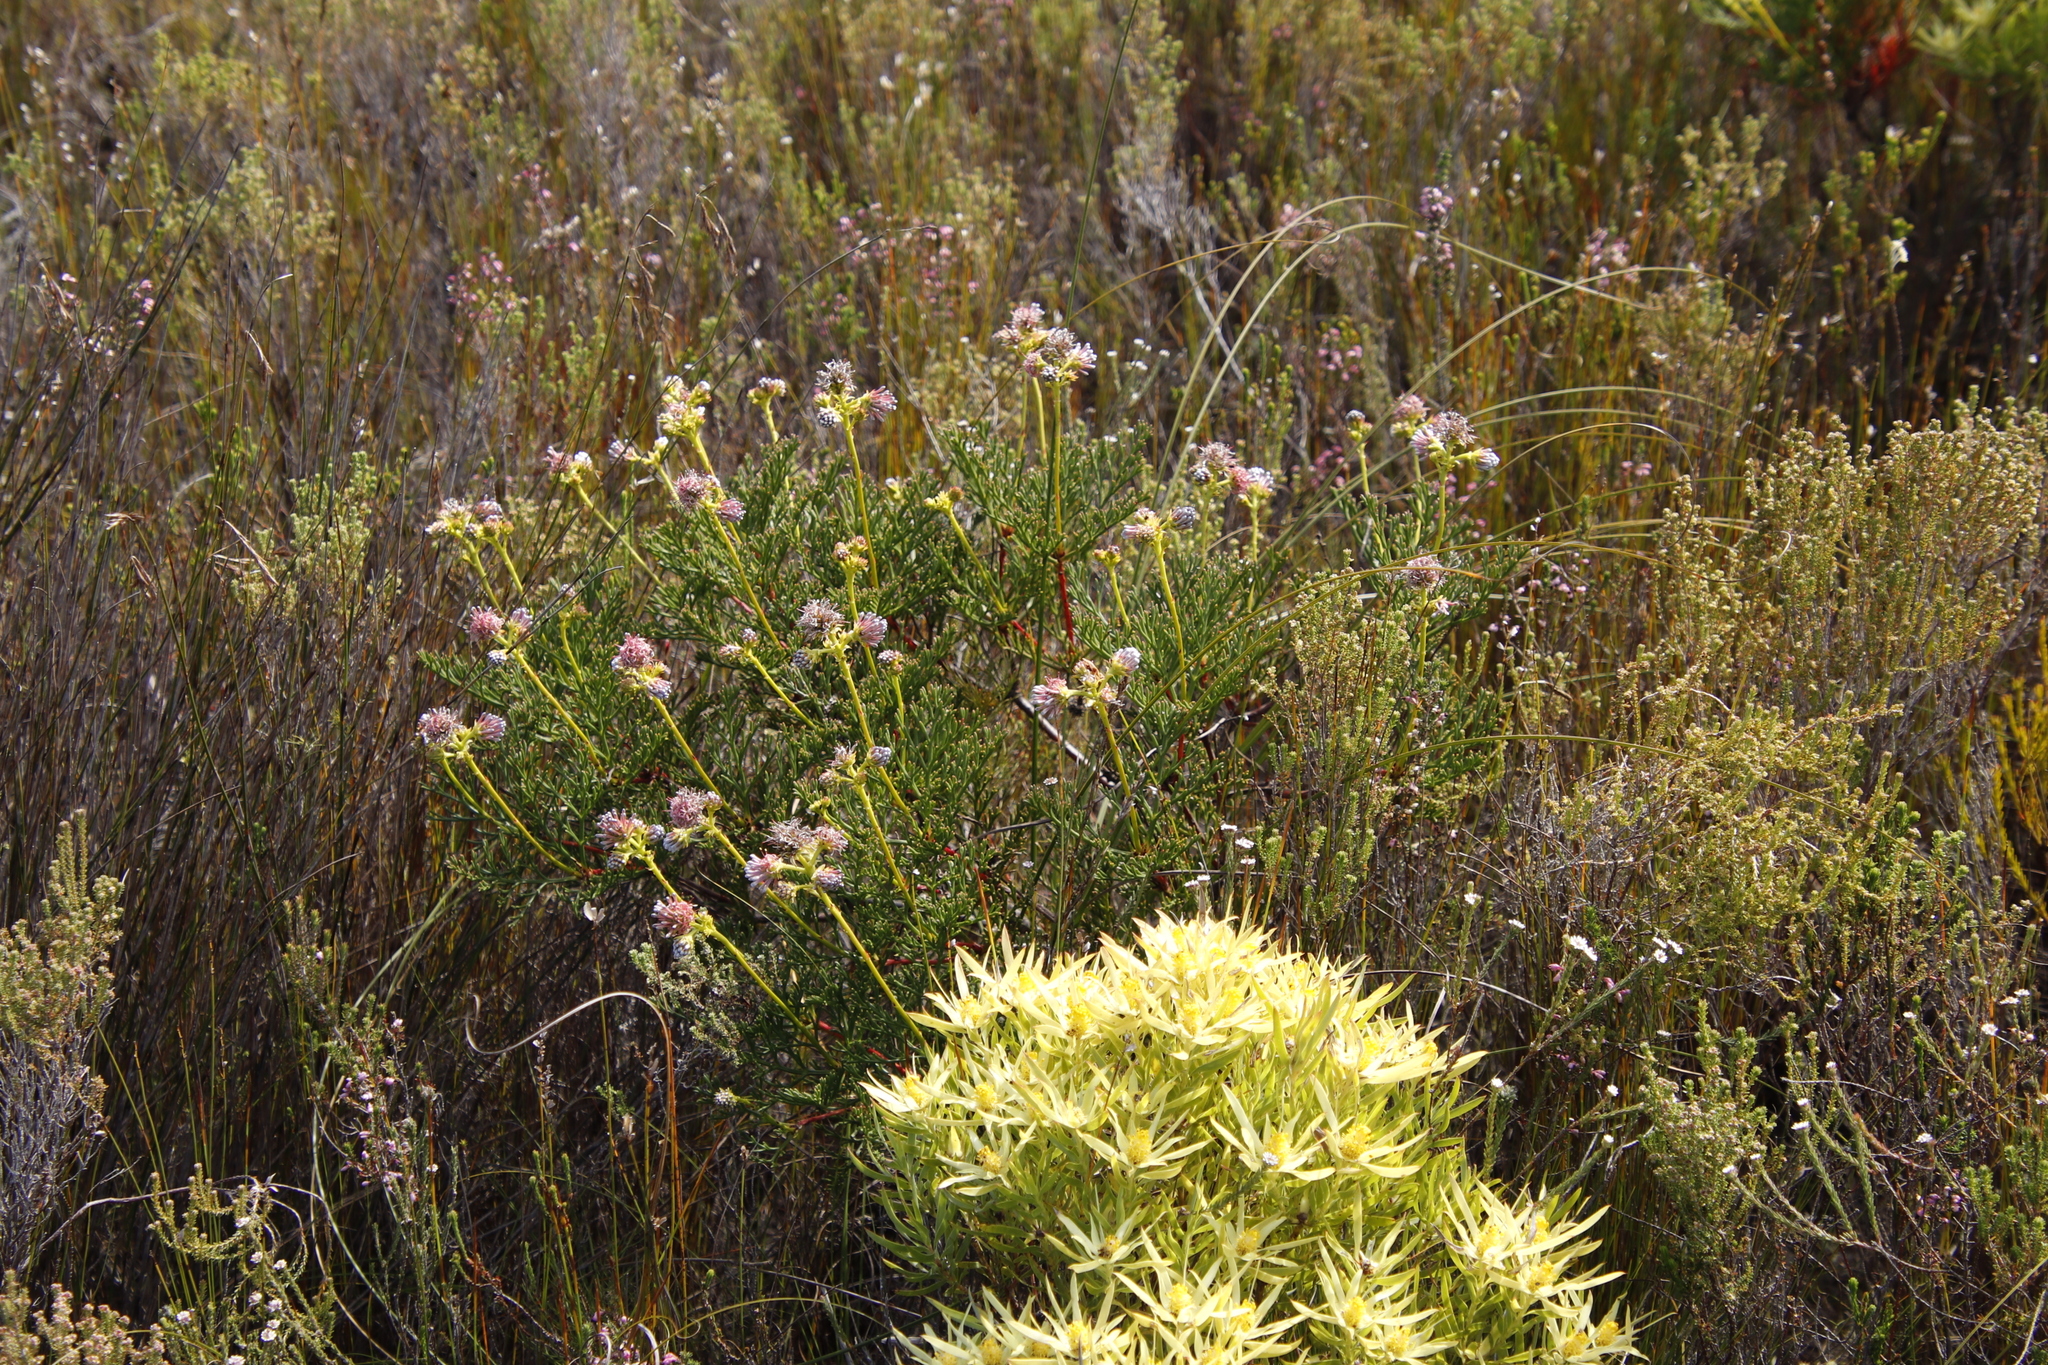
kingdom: Plantae
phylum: Tracheophyta
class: Magnoliopsida
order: Proteales
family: Proteaceae
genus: Serruria
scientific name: Serruria elongata
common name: Long-stalk spiderhead
